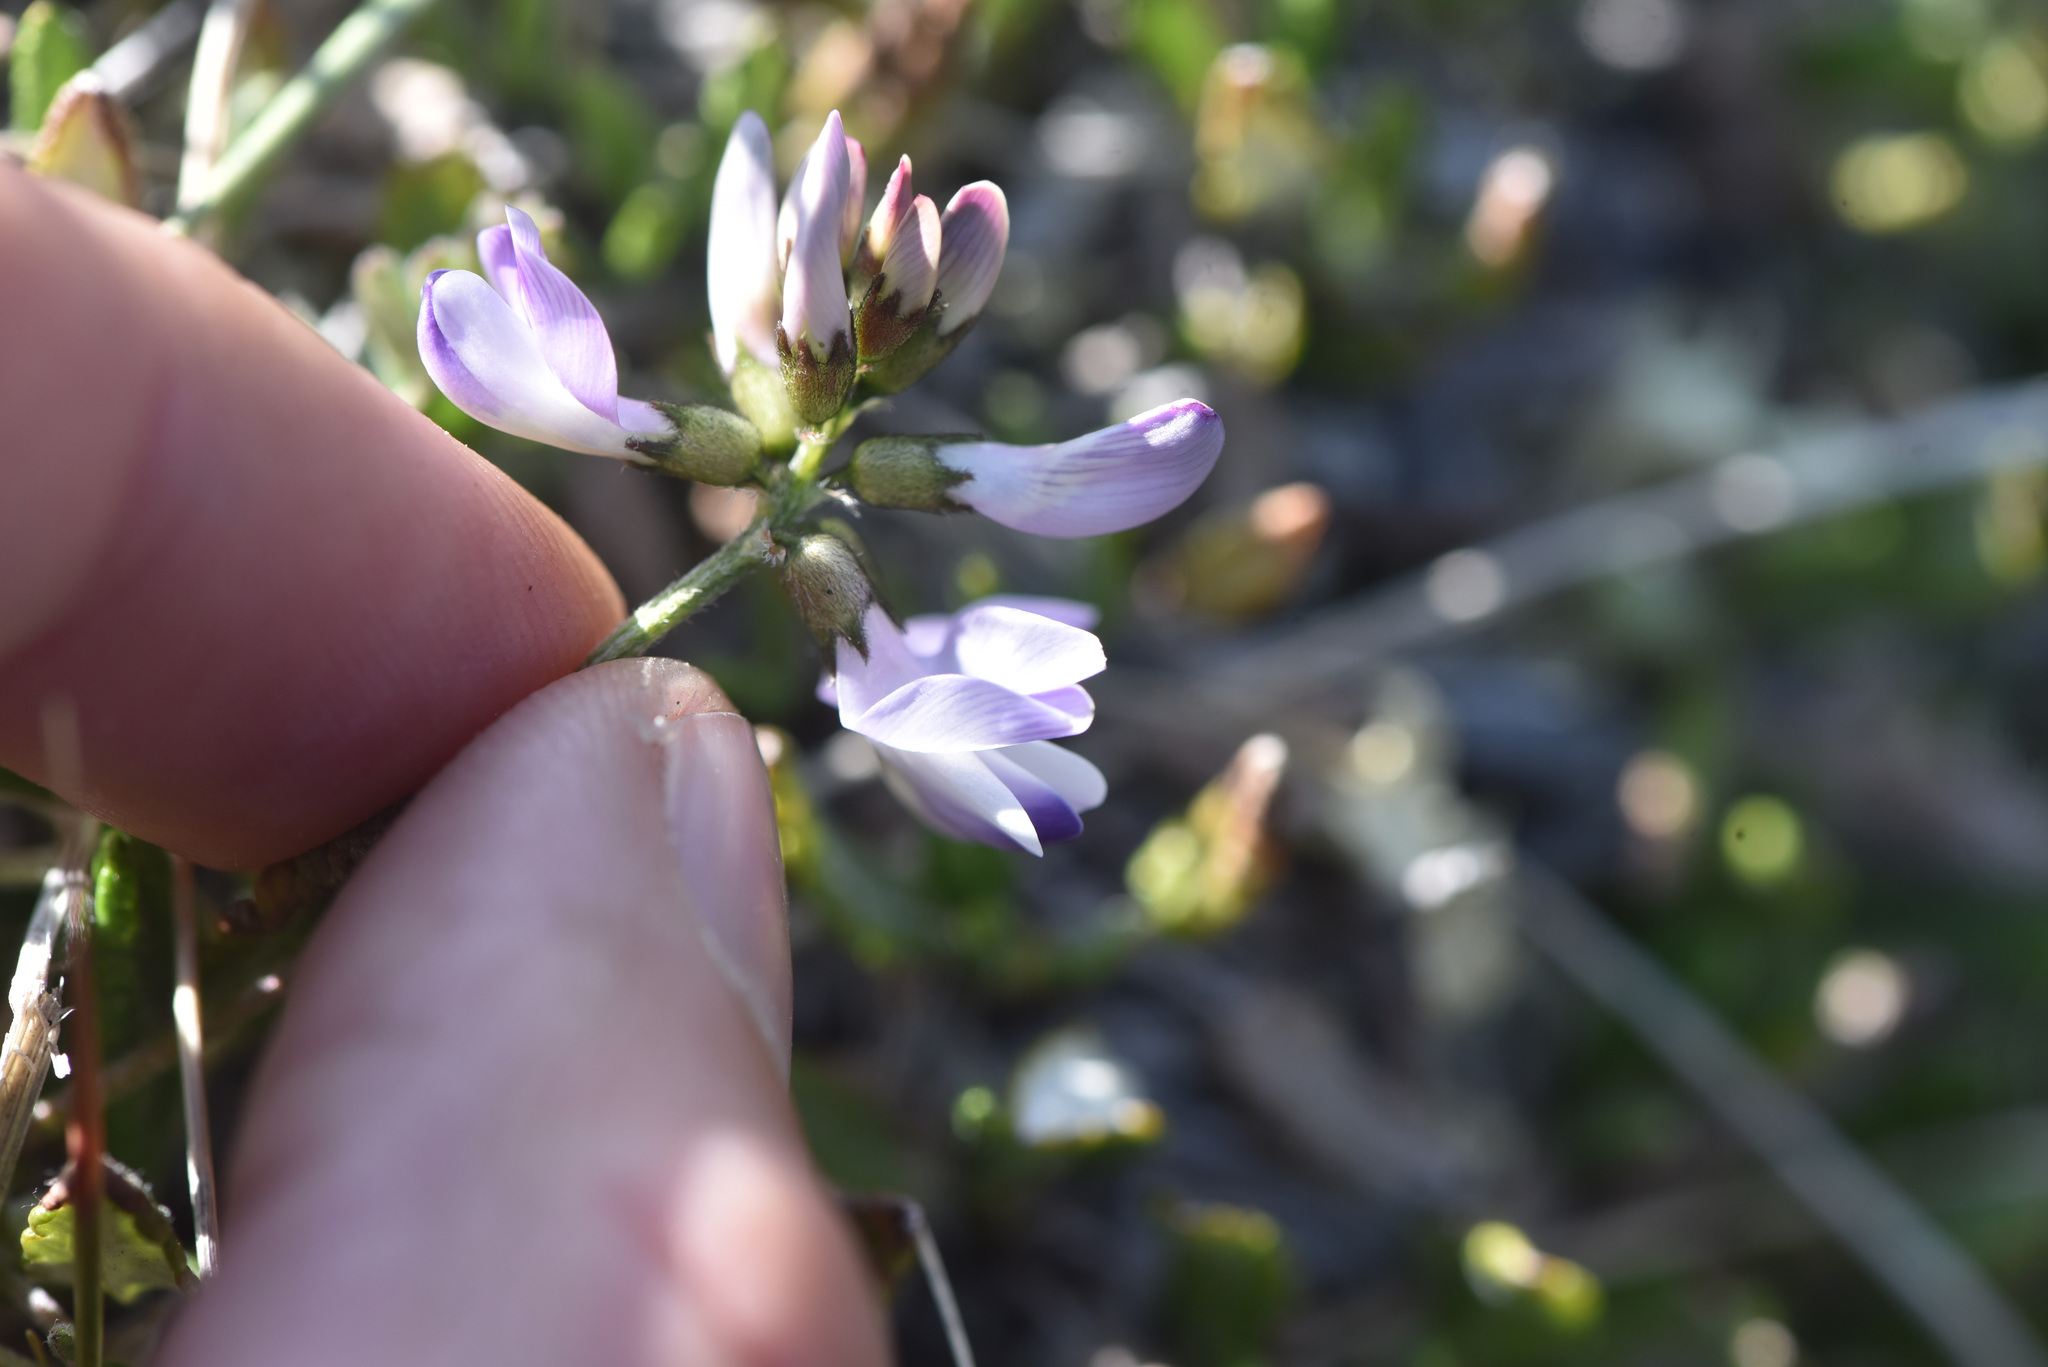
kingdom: Plantae
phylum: Tracheophyta
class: Magnoliopsida
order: Fabales
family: Fabaceae
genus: Astragalus
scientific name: Astragalus alpinus
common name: Alpine milk-vetch
